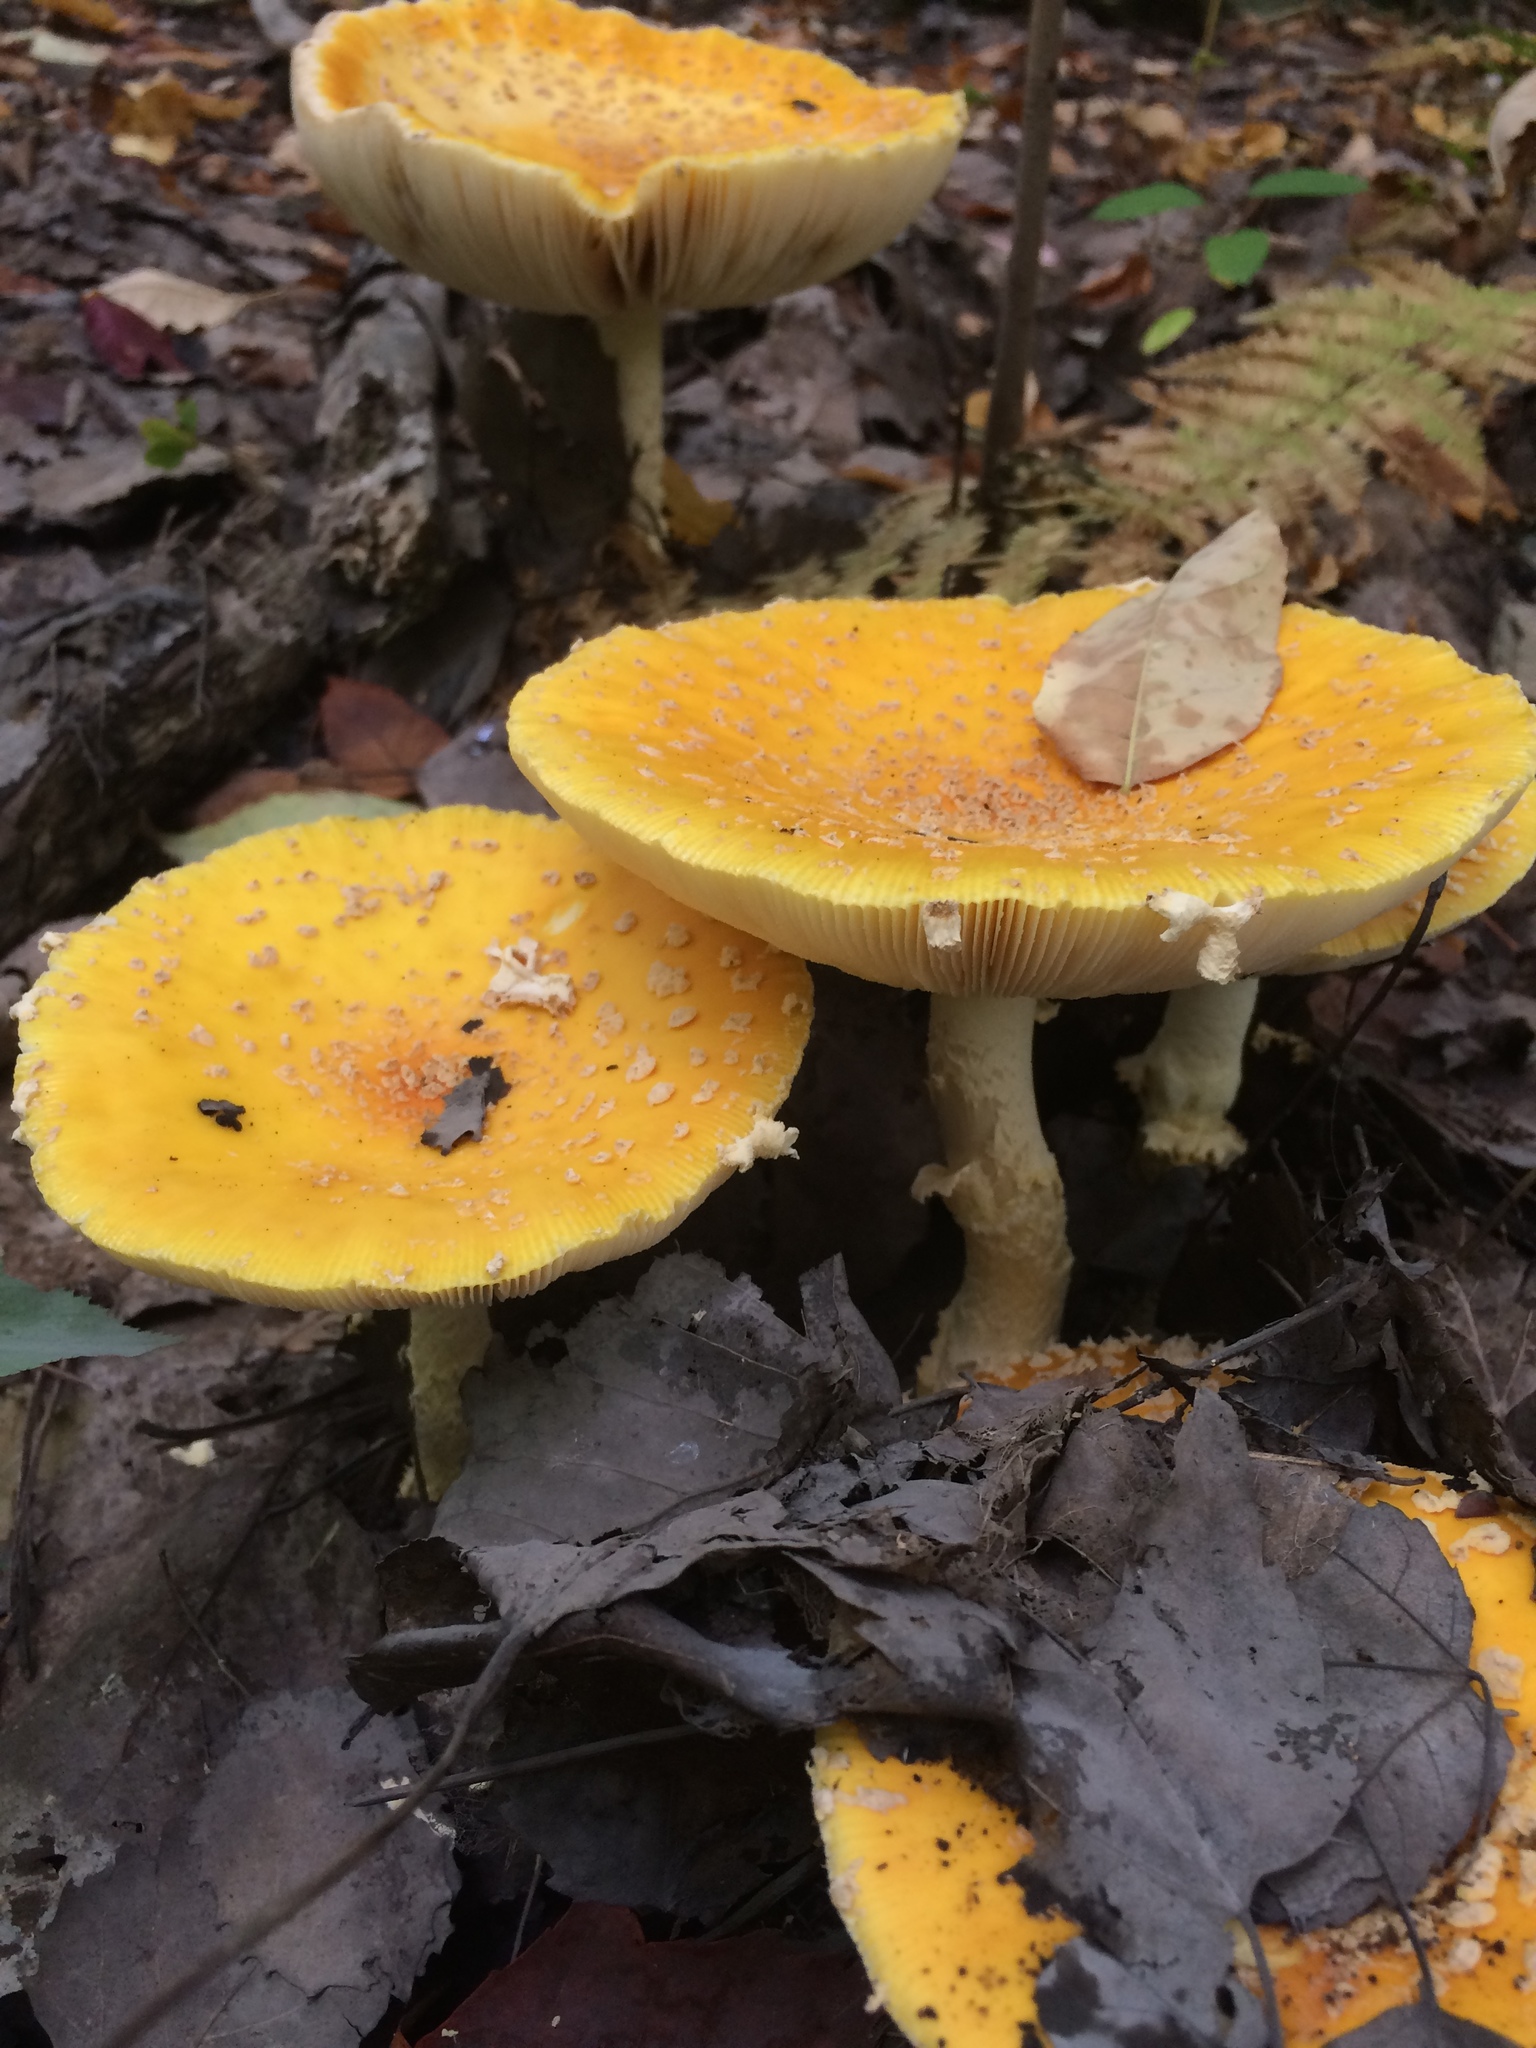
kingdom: Fungi
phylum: Basidiomycota
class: Agaricomycetes
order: Agaricales
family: Amanitaceae
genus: Amanita
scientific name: Amanita muscaria
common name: Fly agaric
